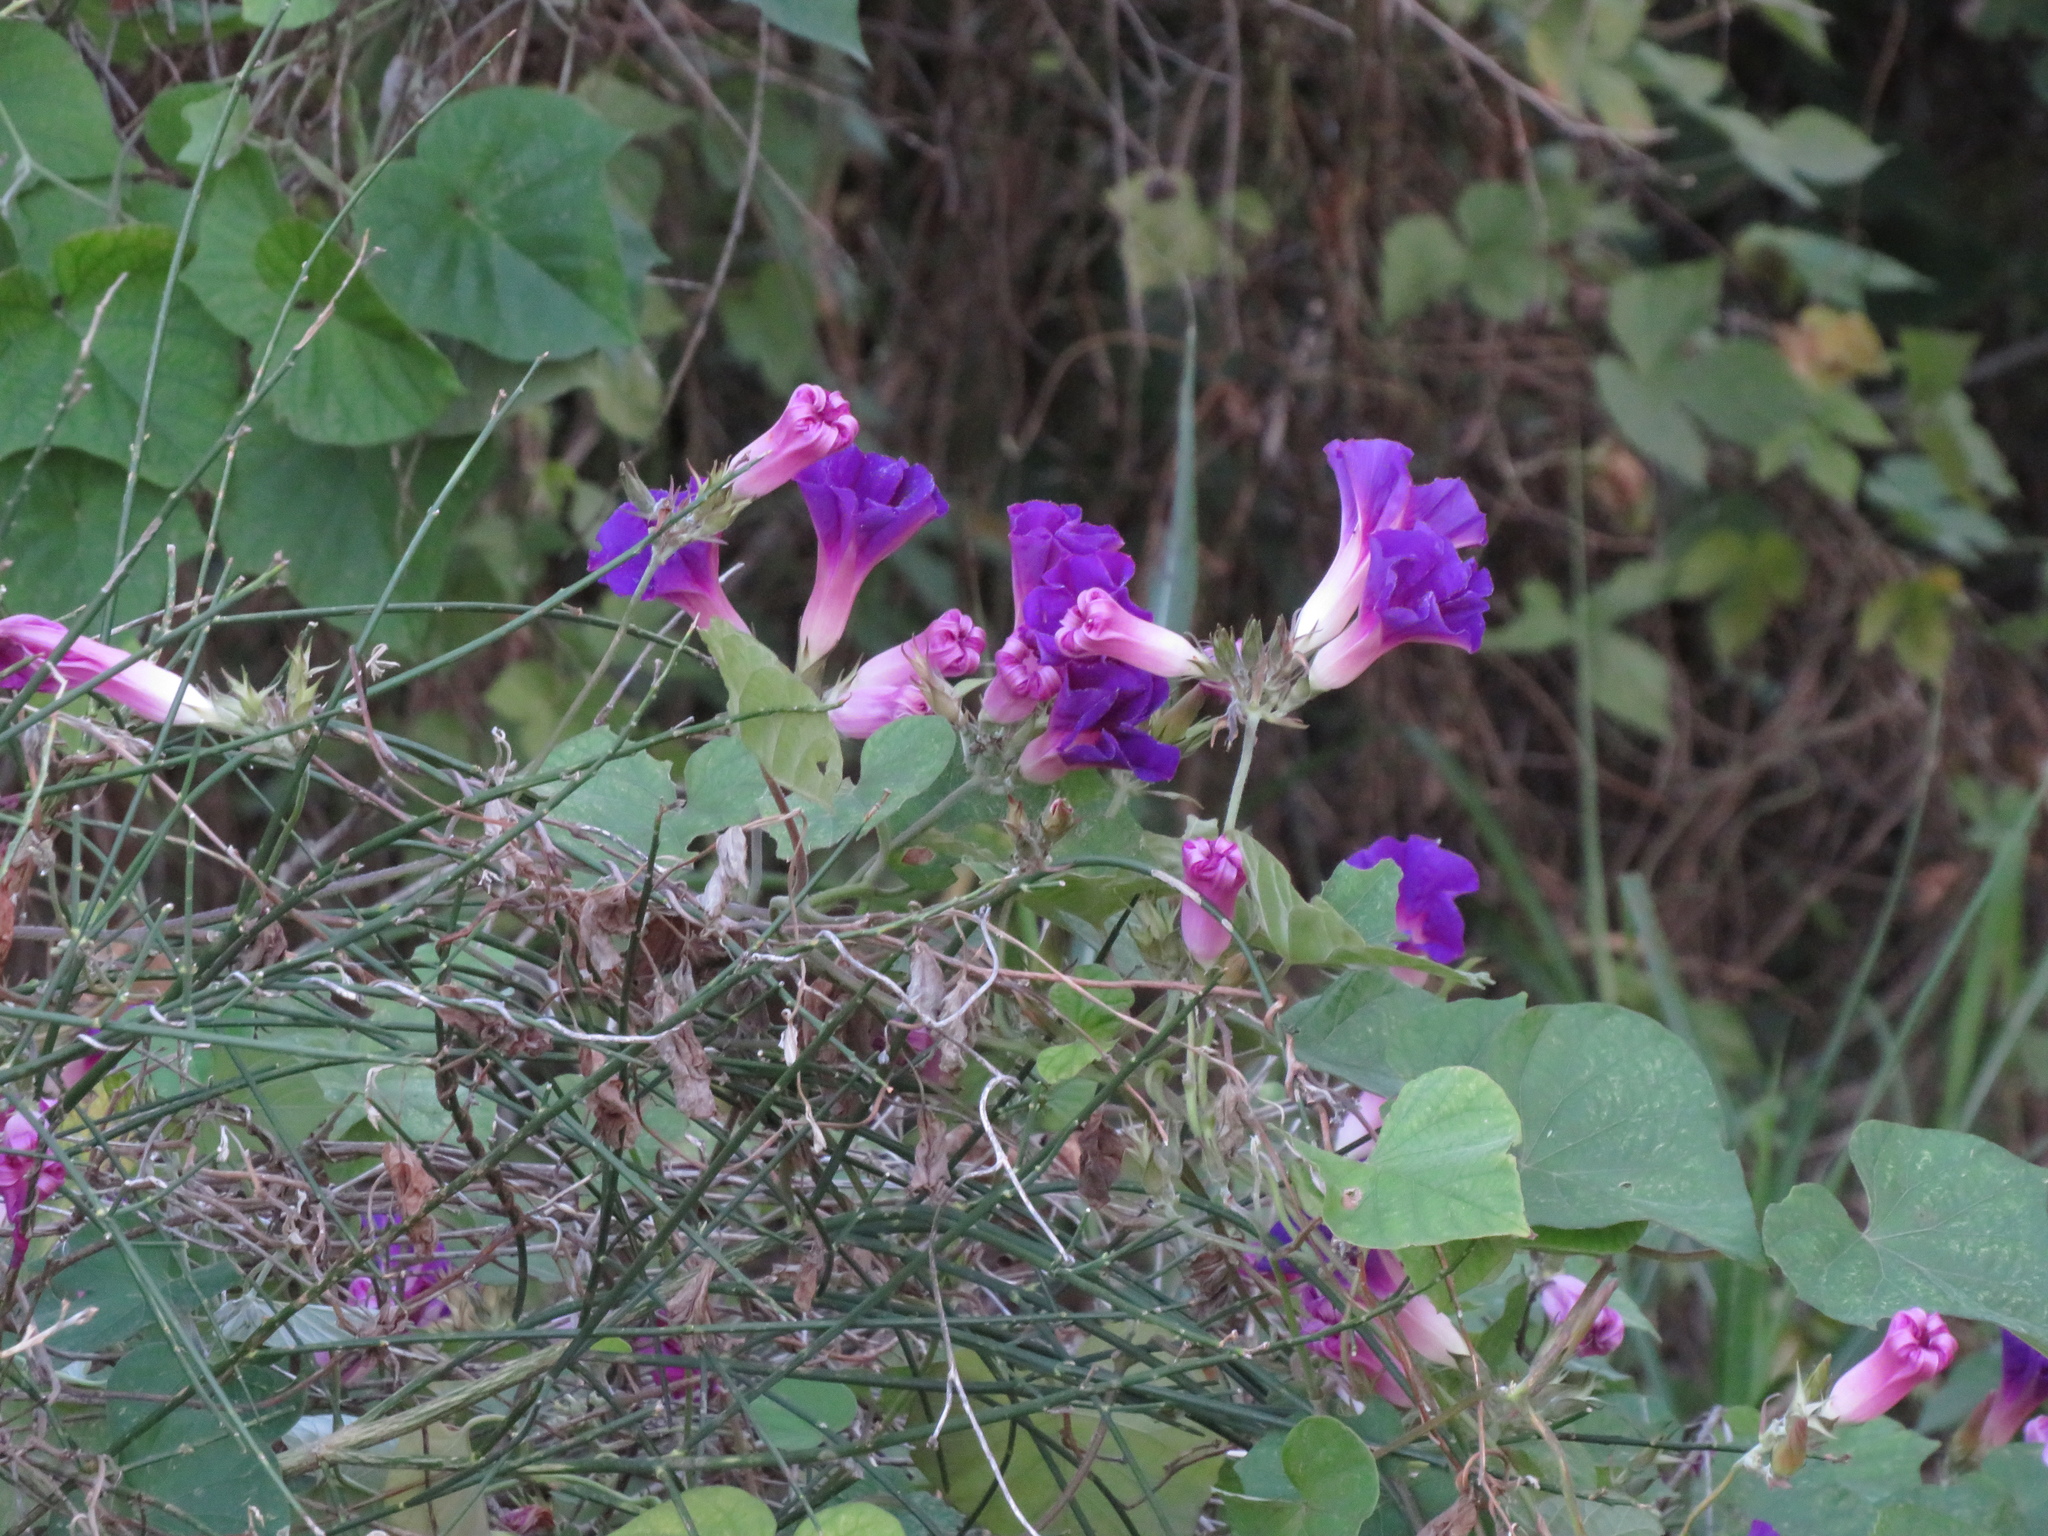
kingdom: Plantae
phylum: Tracheophyta
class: Magnoliopsida
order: Solanales
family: Convolvulaceae
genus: Ipomoea
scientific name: Ipomoea indica
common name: Blue dawnflower
